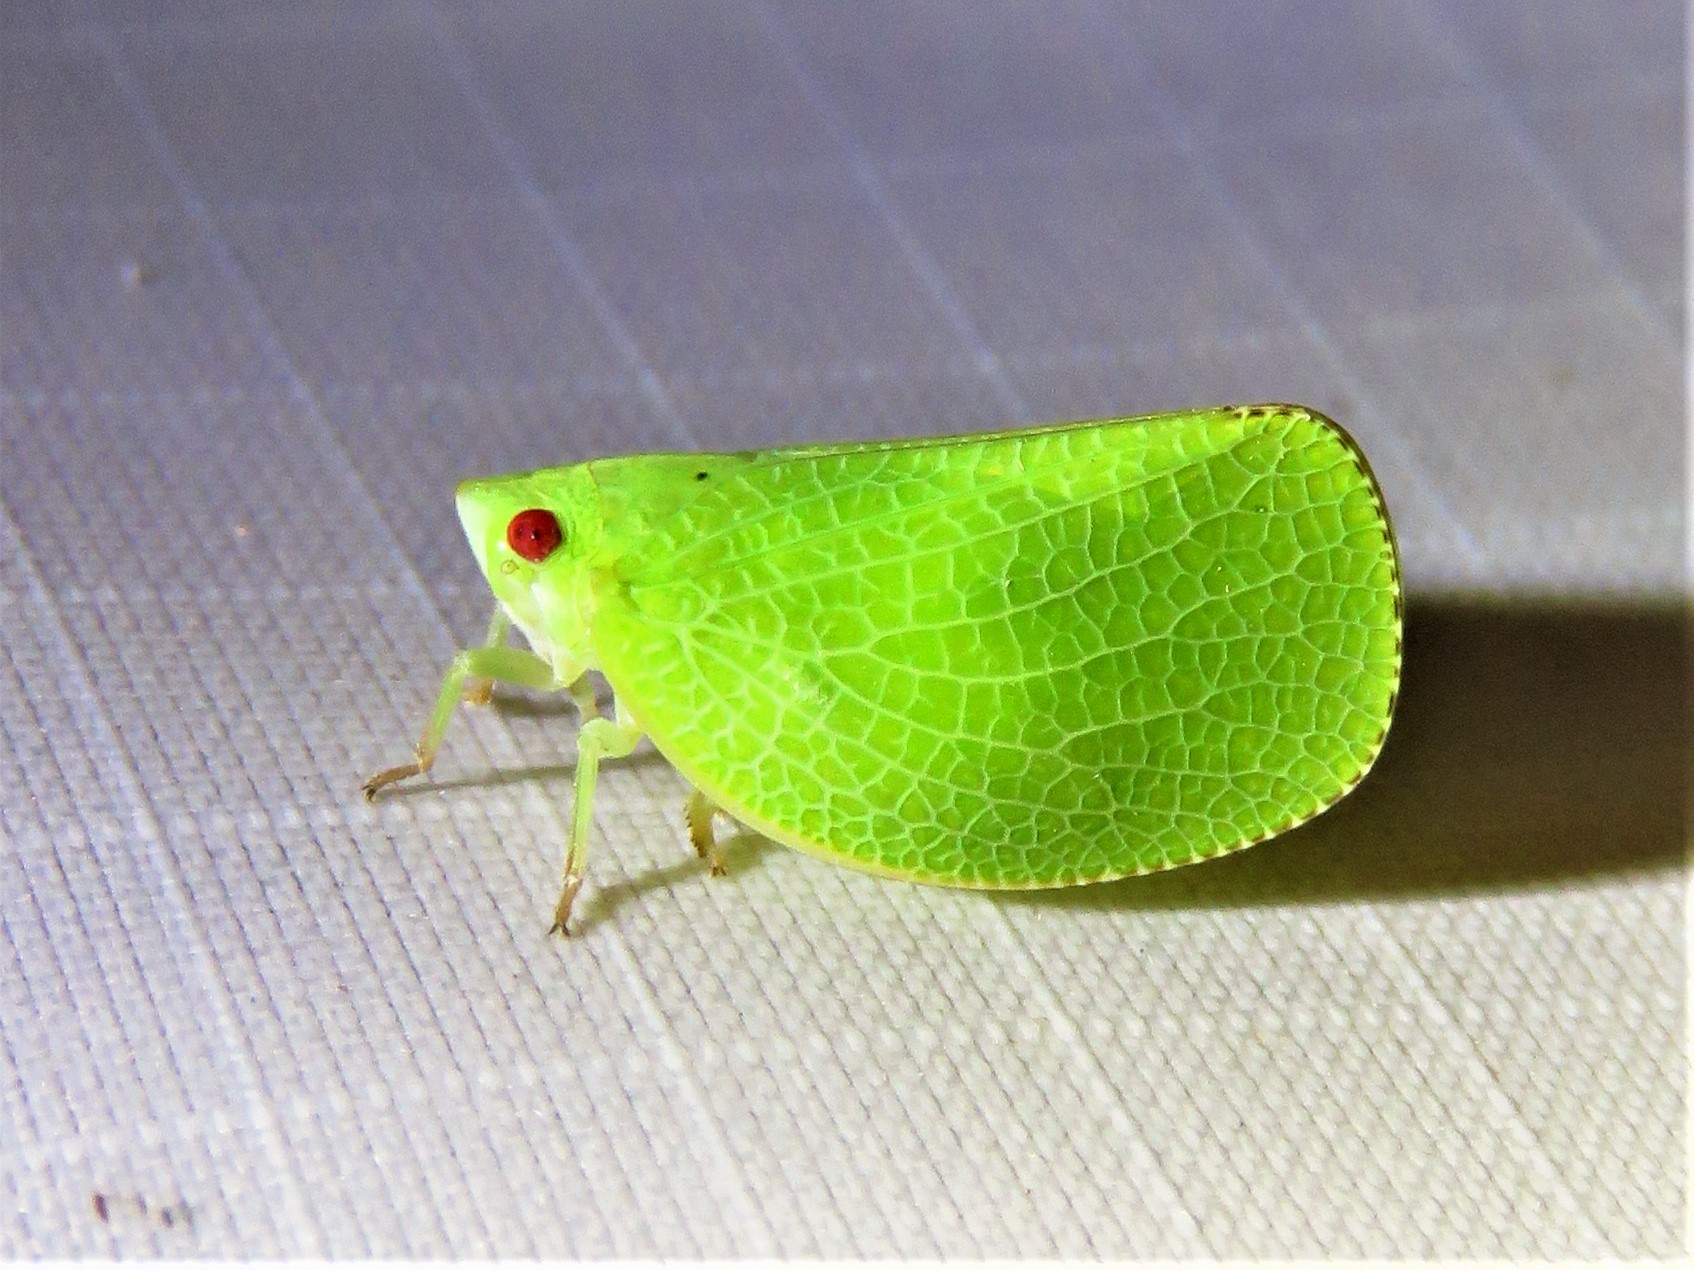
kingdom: Animalia
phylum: Arthropoda
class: Insecta
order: Hemiptera
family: Acanaloniidae
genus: Acanalonia
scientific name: Acanalonia conica
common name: Green cone-headed planthopper
